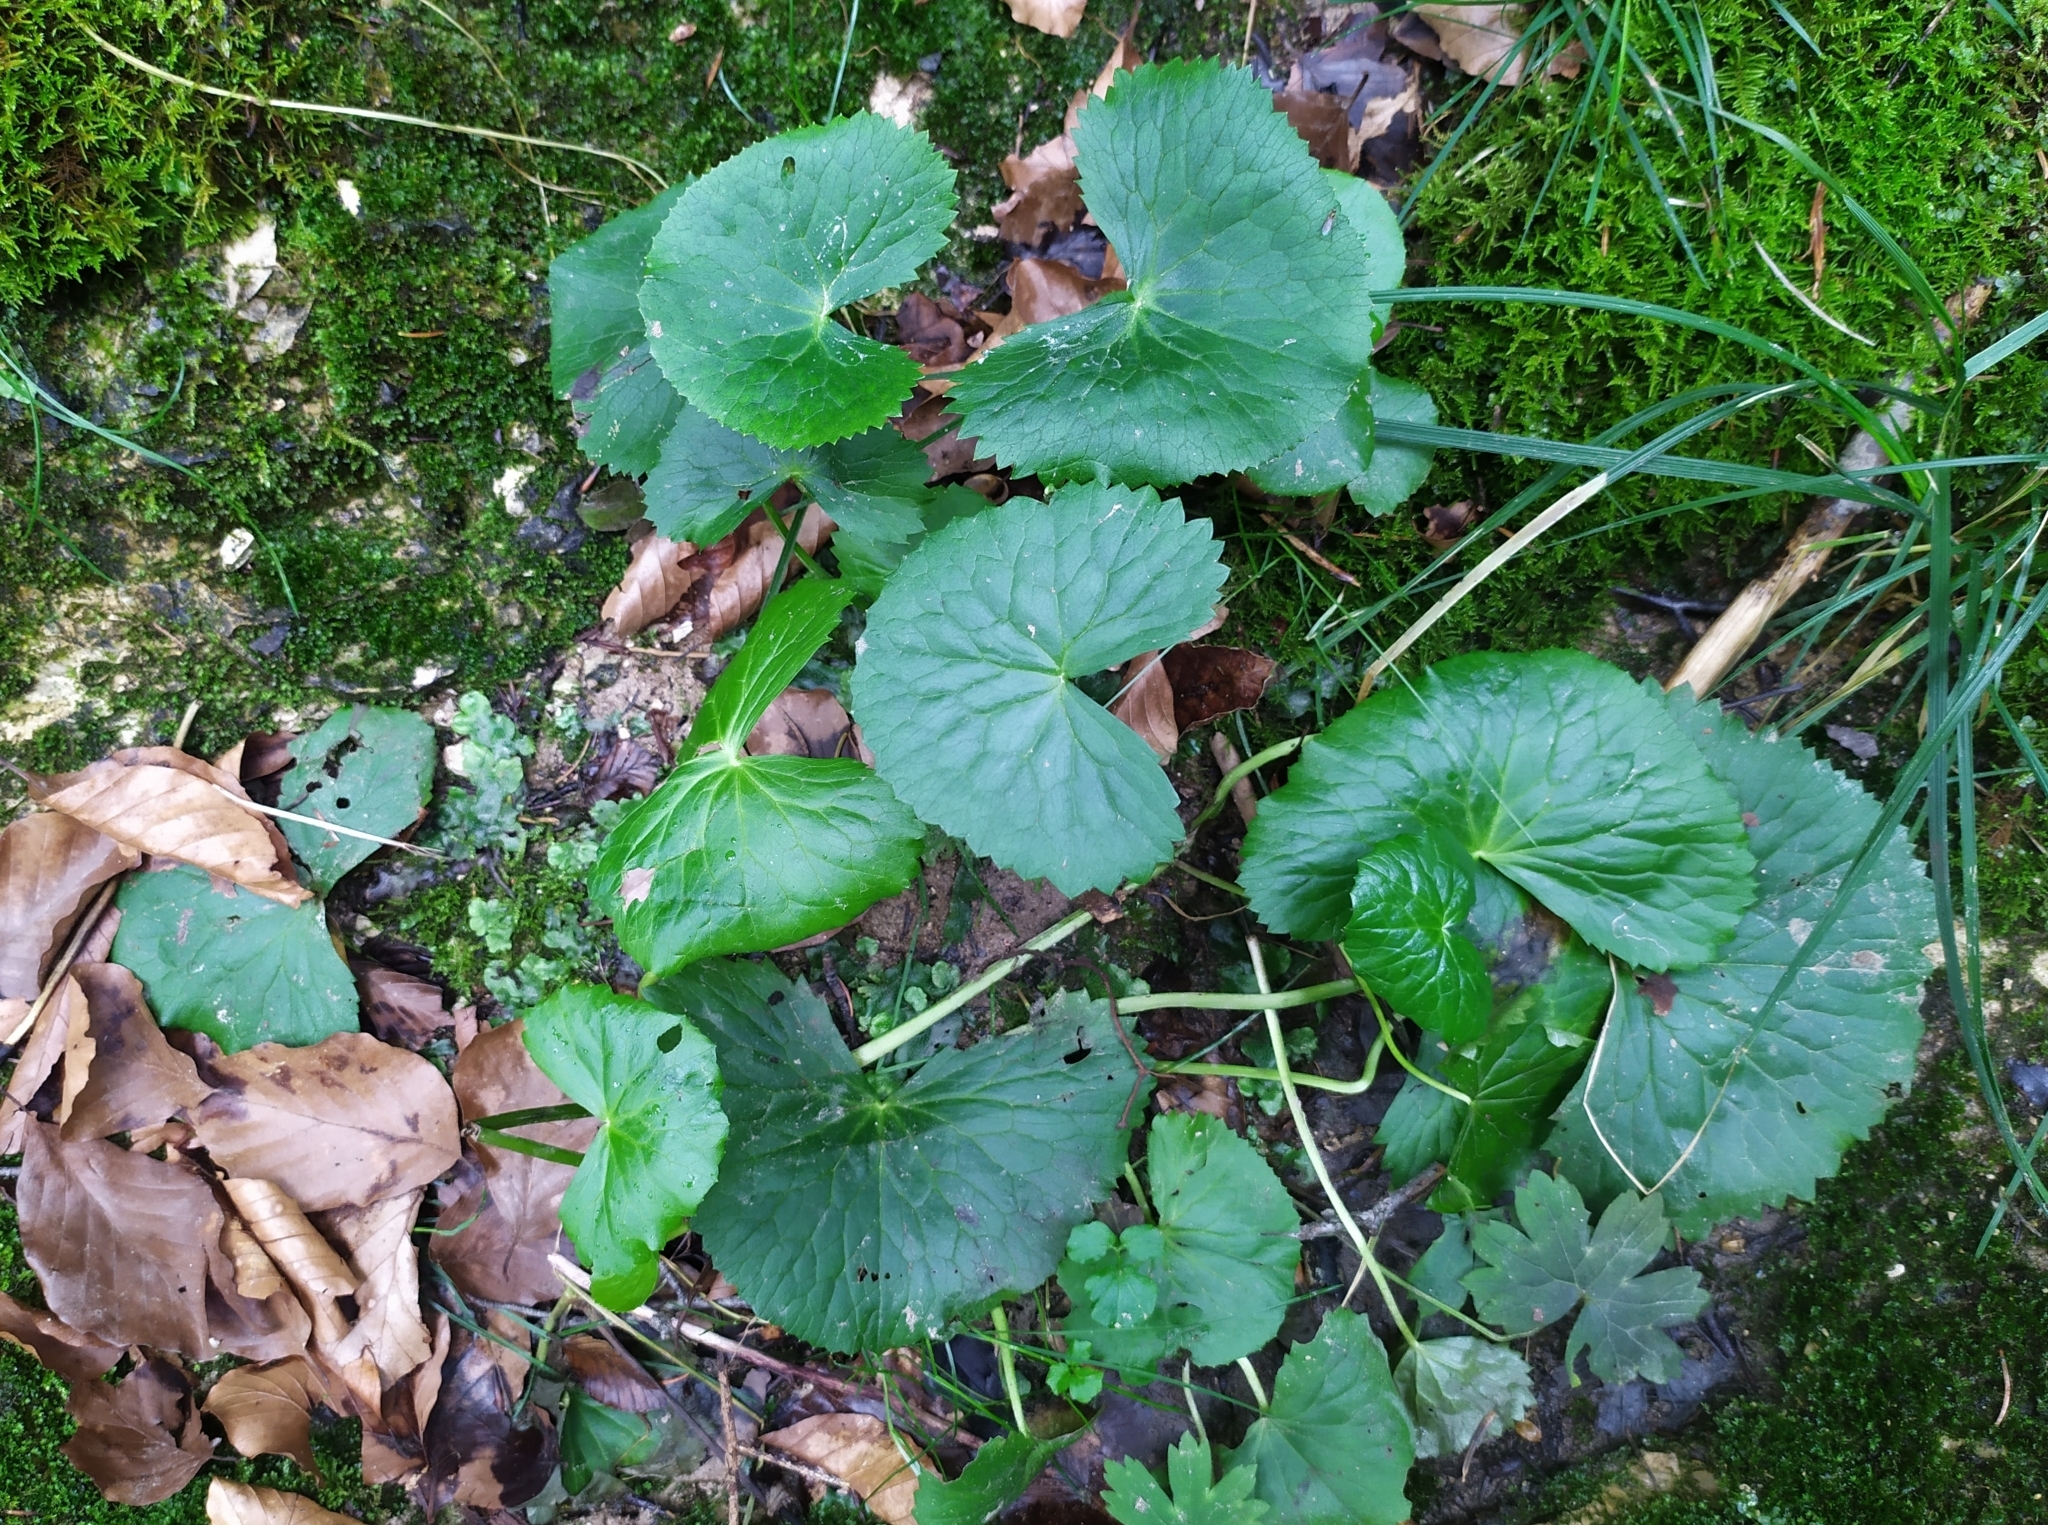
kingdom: Plantae
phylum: Tracheophyta
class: Magnoliopsida
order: Asterales
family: Asteraceae
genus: Adenostyles
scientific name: Adenostyles alpina
